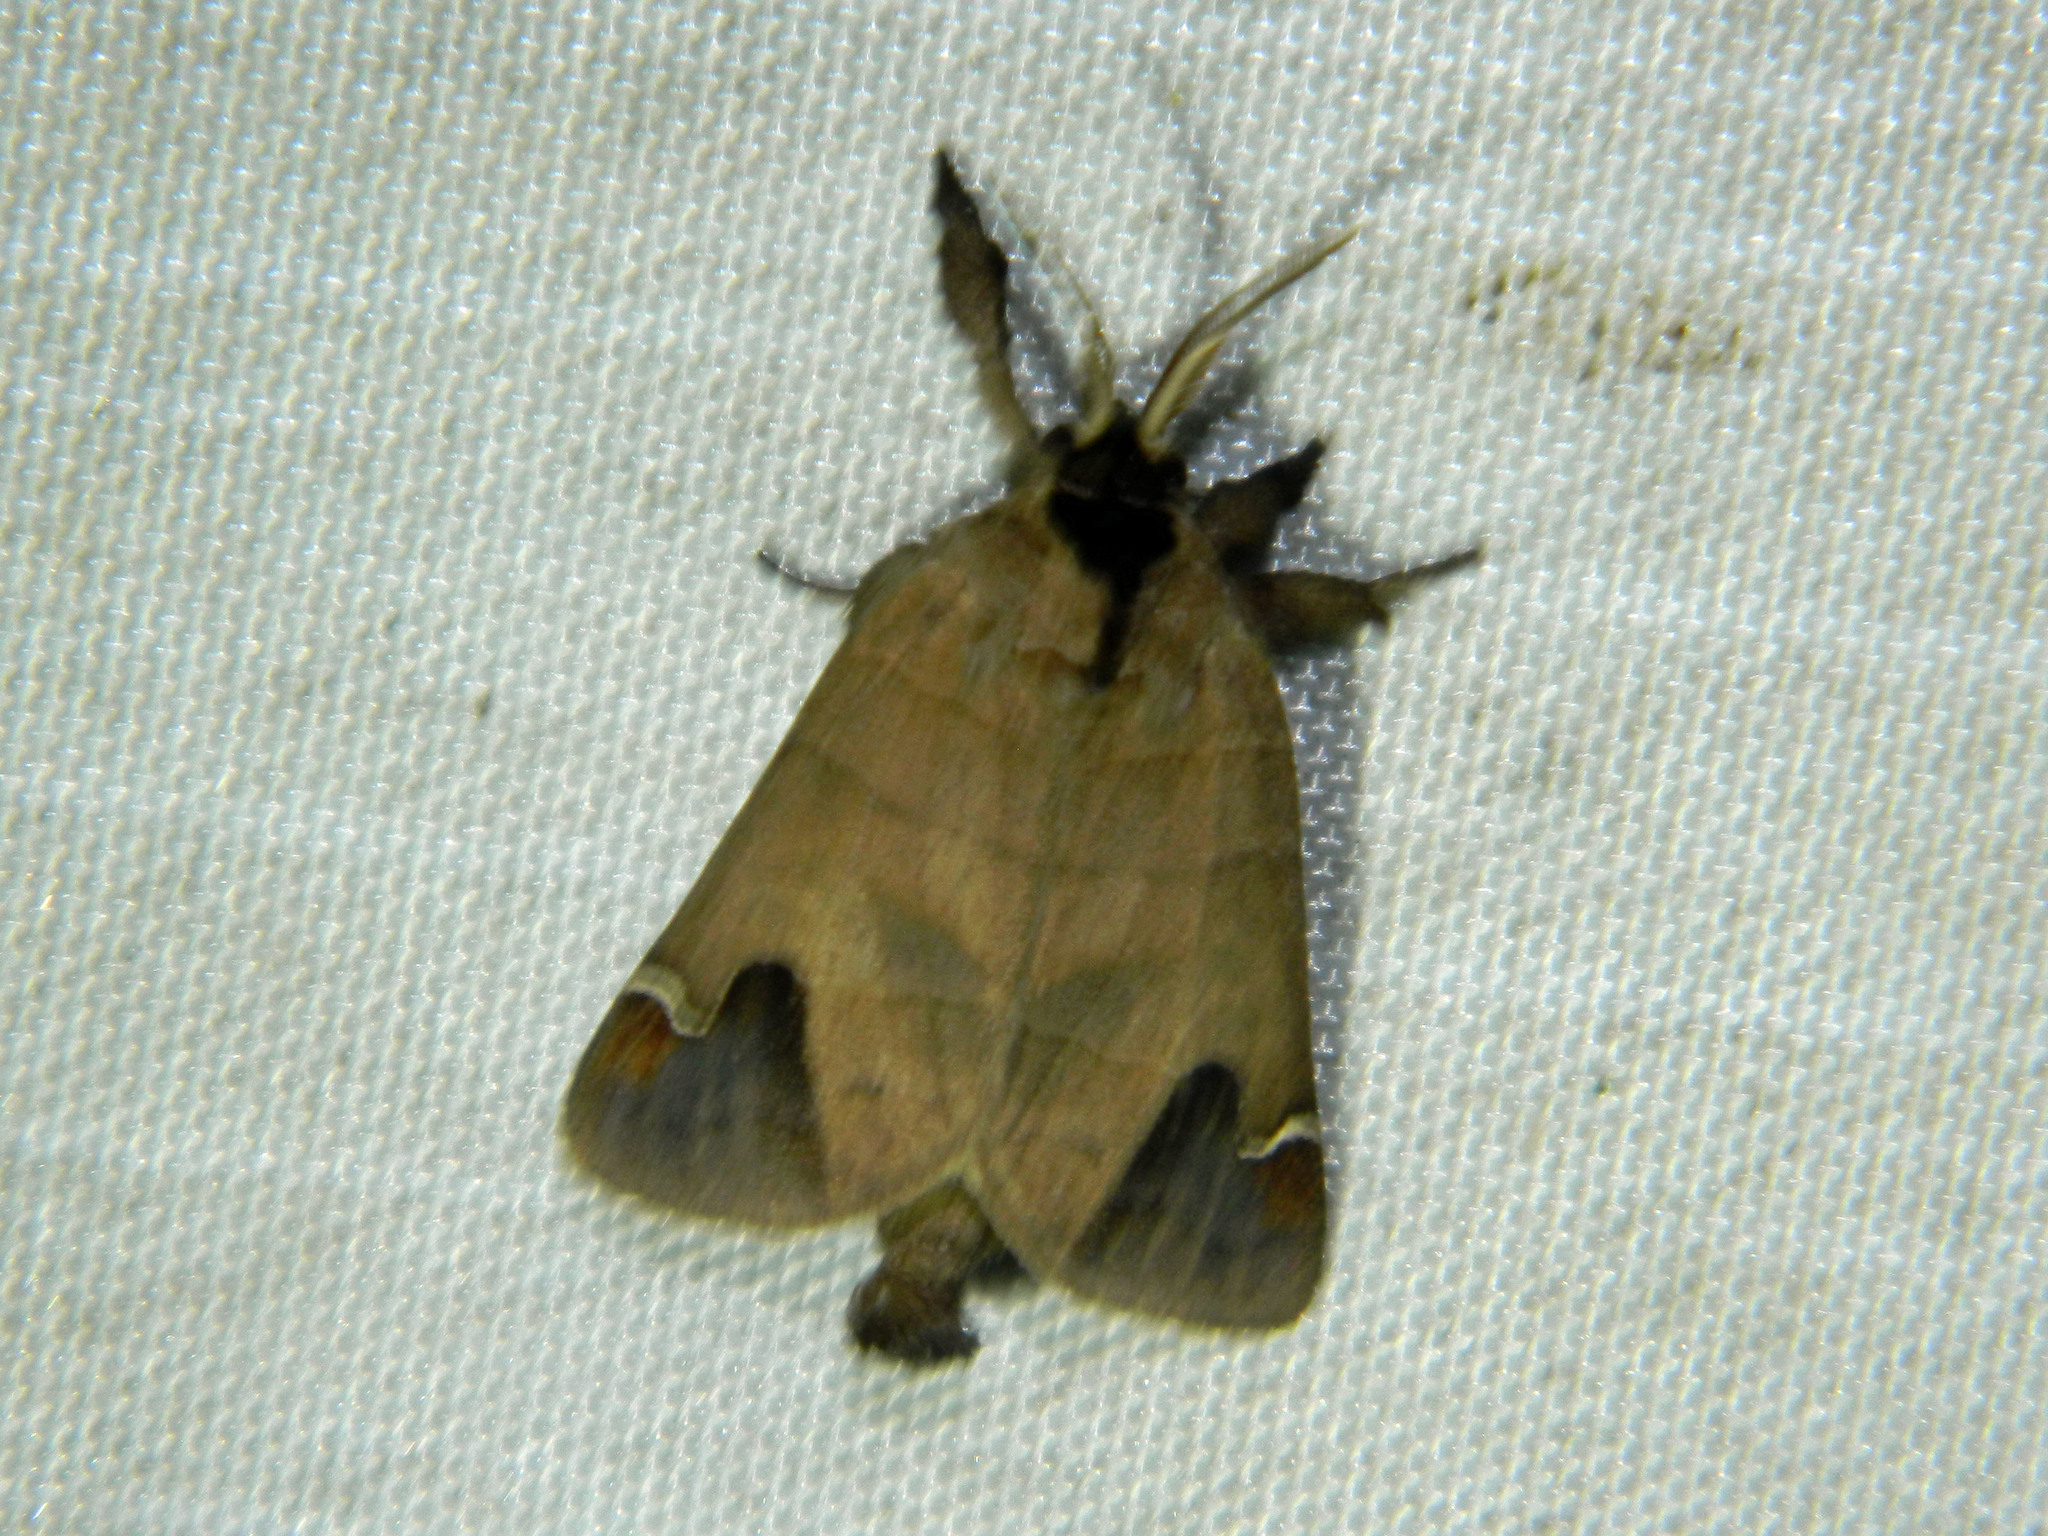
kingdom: Animalia
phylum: Arthropoda
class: Insecta
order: Lepidoptera
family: Notodontidae
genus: Clostera
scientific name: Clostera albosigma
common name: Sigmoid prominent
